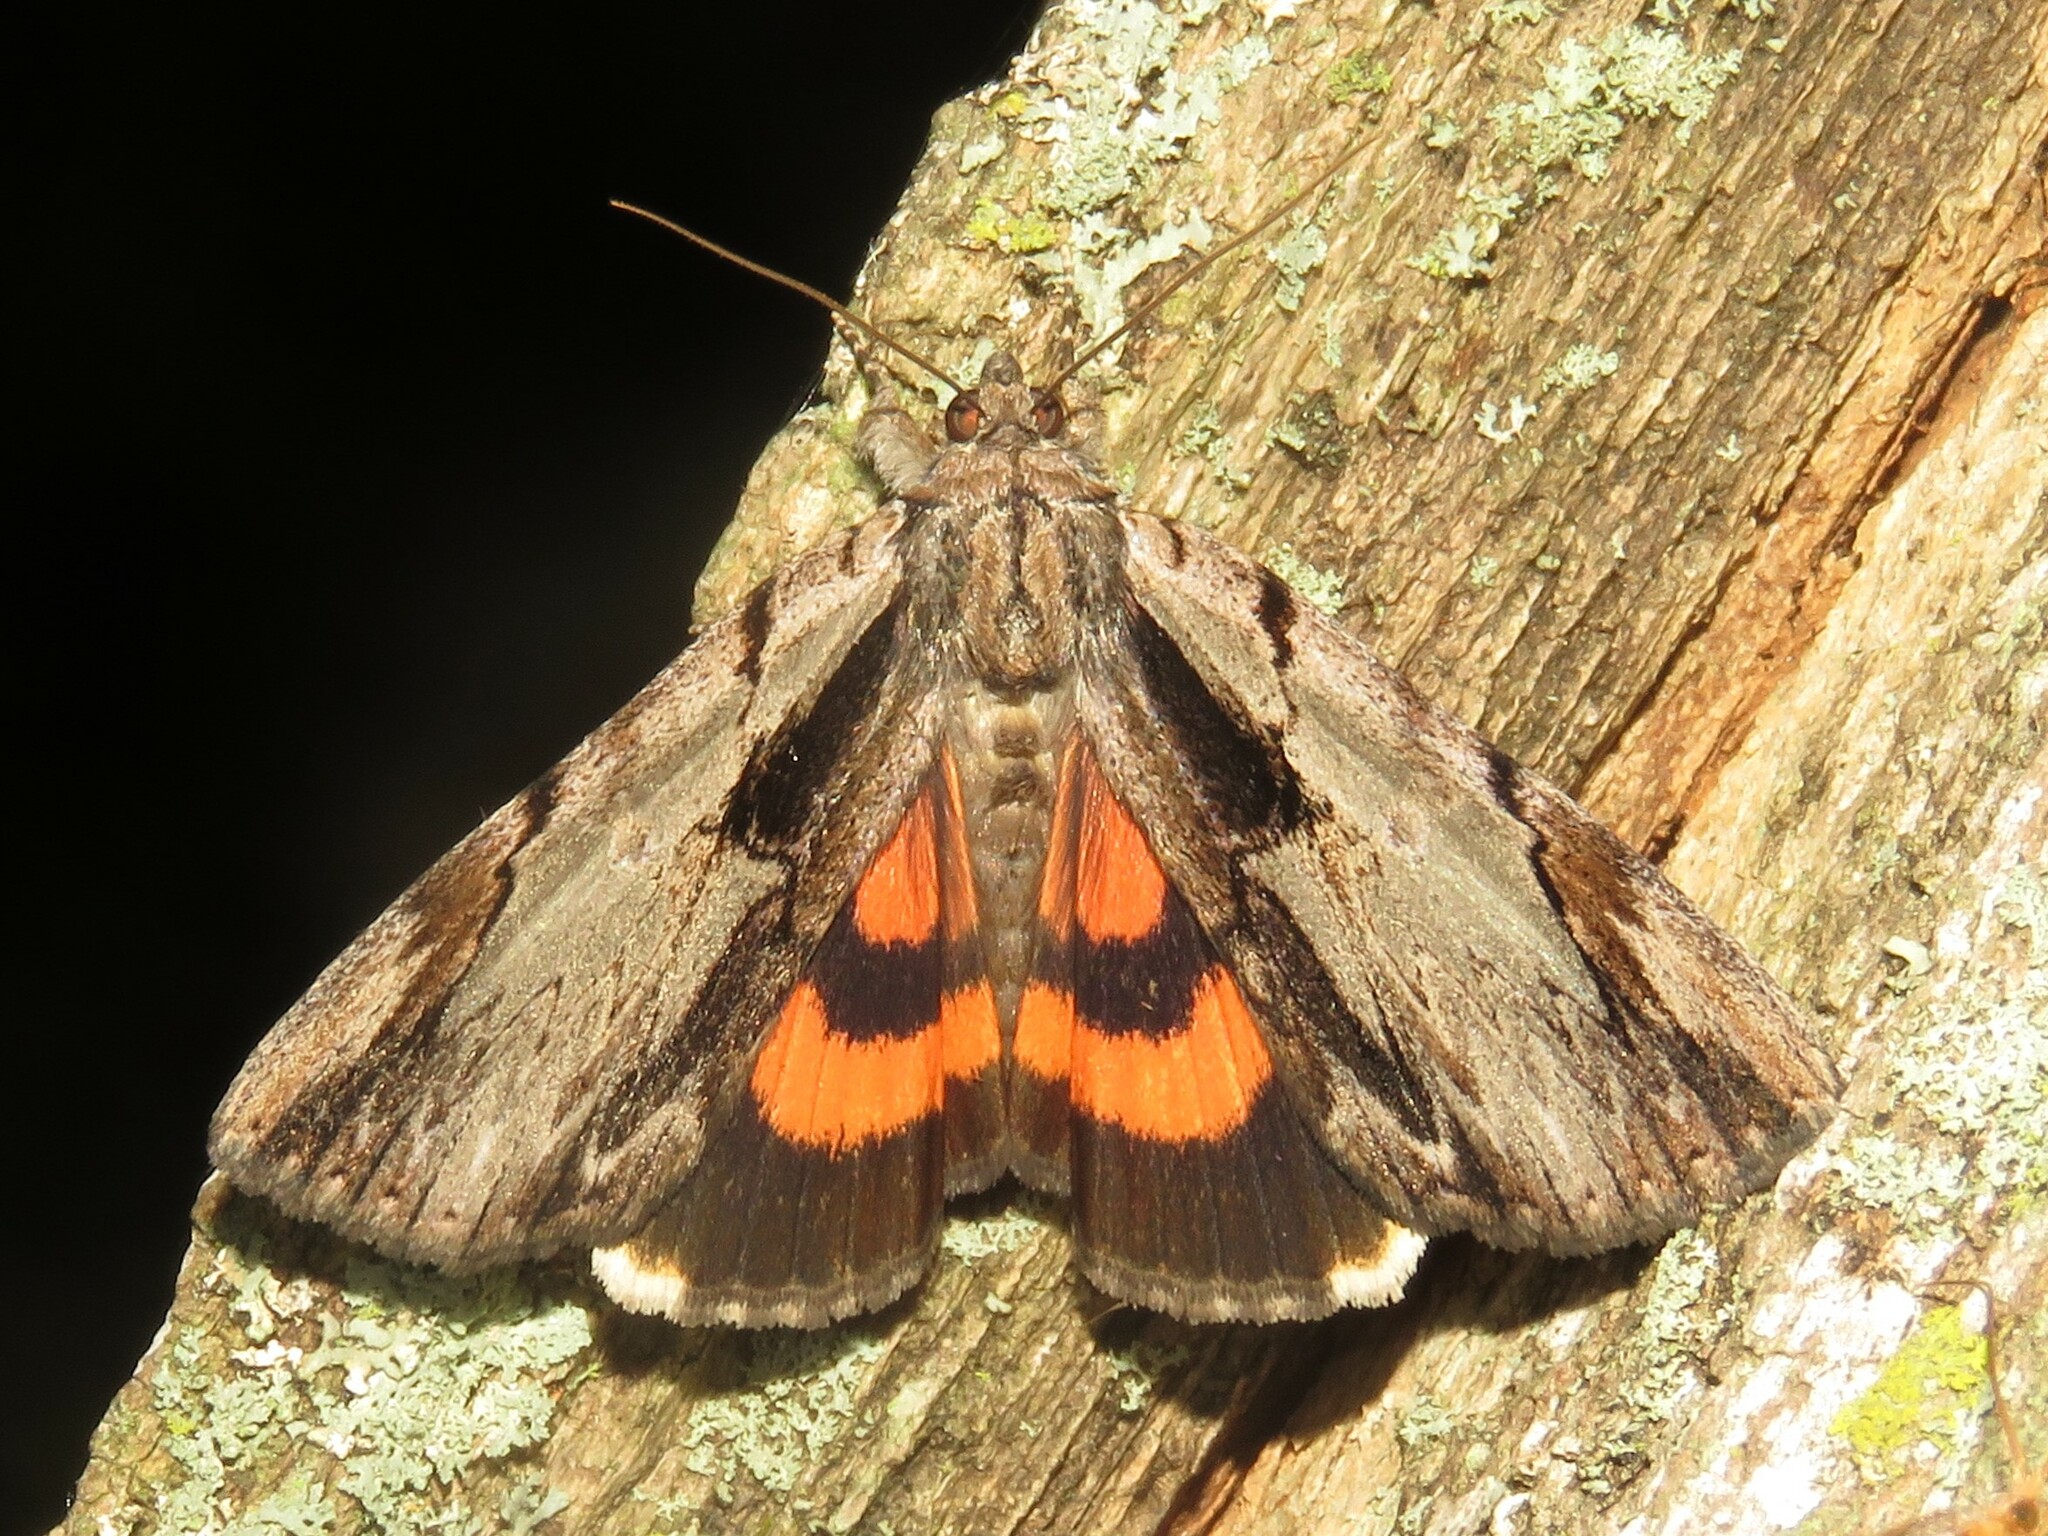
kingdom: Animalia
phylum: Arthropoda
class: Insecta
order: Lepidoptera
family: Erebidae
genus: Catocala
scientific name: Catocala ultronia
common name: Ultronia underwing
